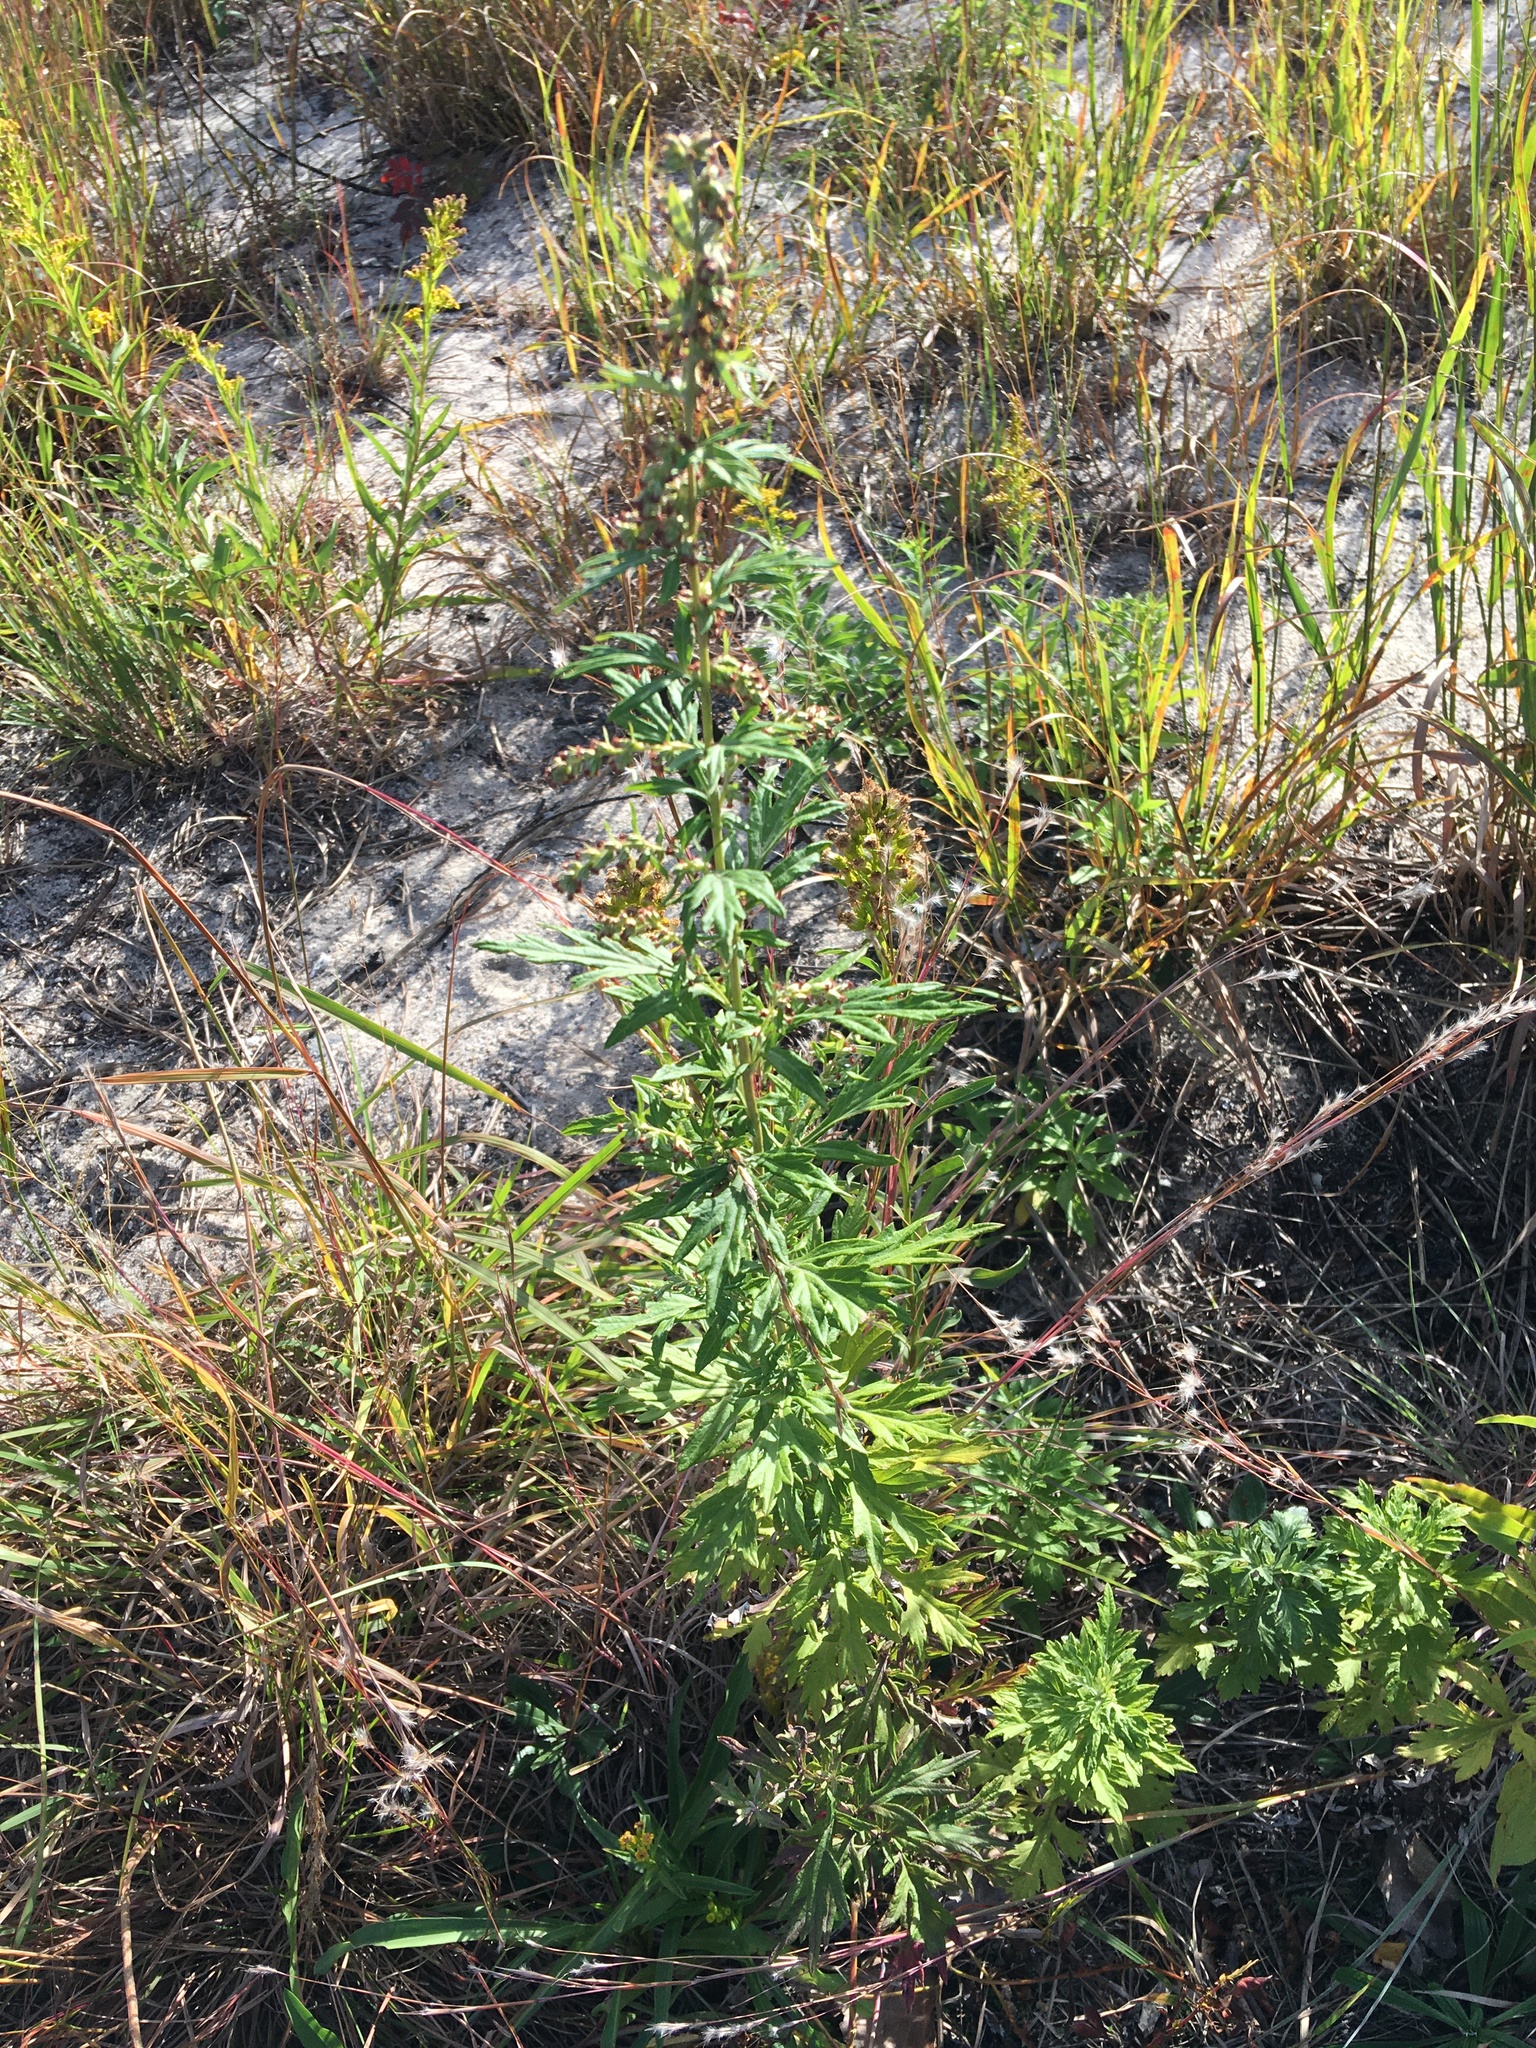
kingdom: Plantae
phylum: Tracheophyta
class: Magnoliopsida
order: Asterales
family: Asteraceae
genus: Artemisia
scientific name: Artemisia vulgaris
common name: Mugwort
